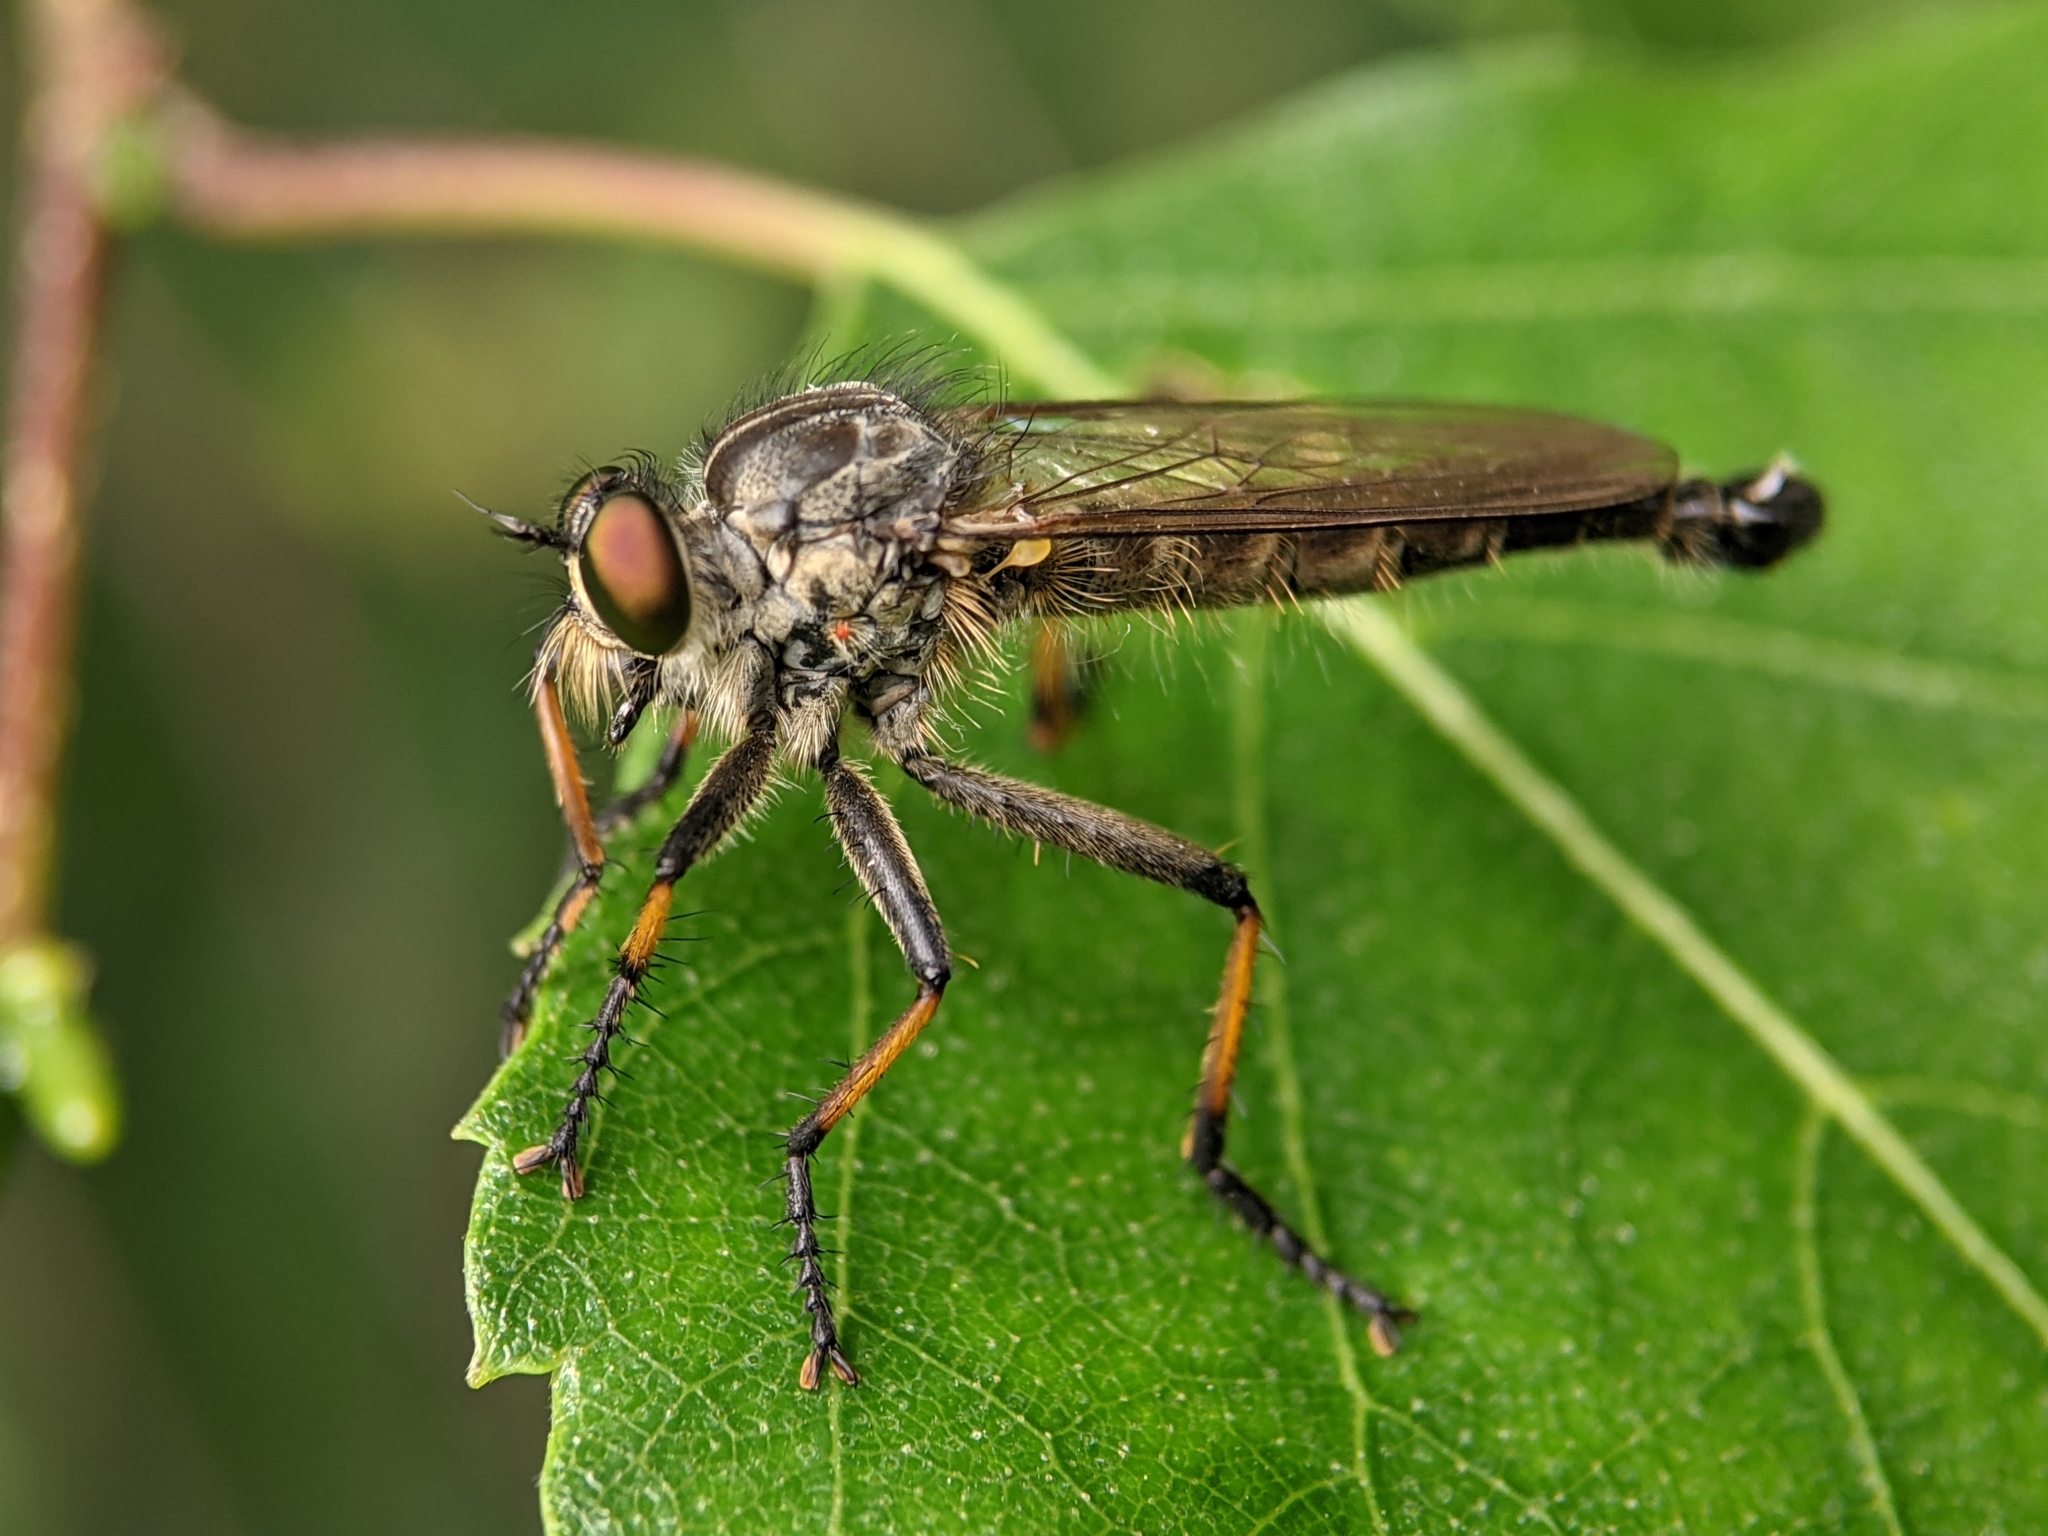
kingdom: Animalia
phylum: Arthropoda
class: Insecta
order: Diptera
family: Asilidae
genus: Neoitamus
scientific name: Neoitamus cyanurus
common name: Common awl robberfly
